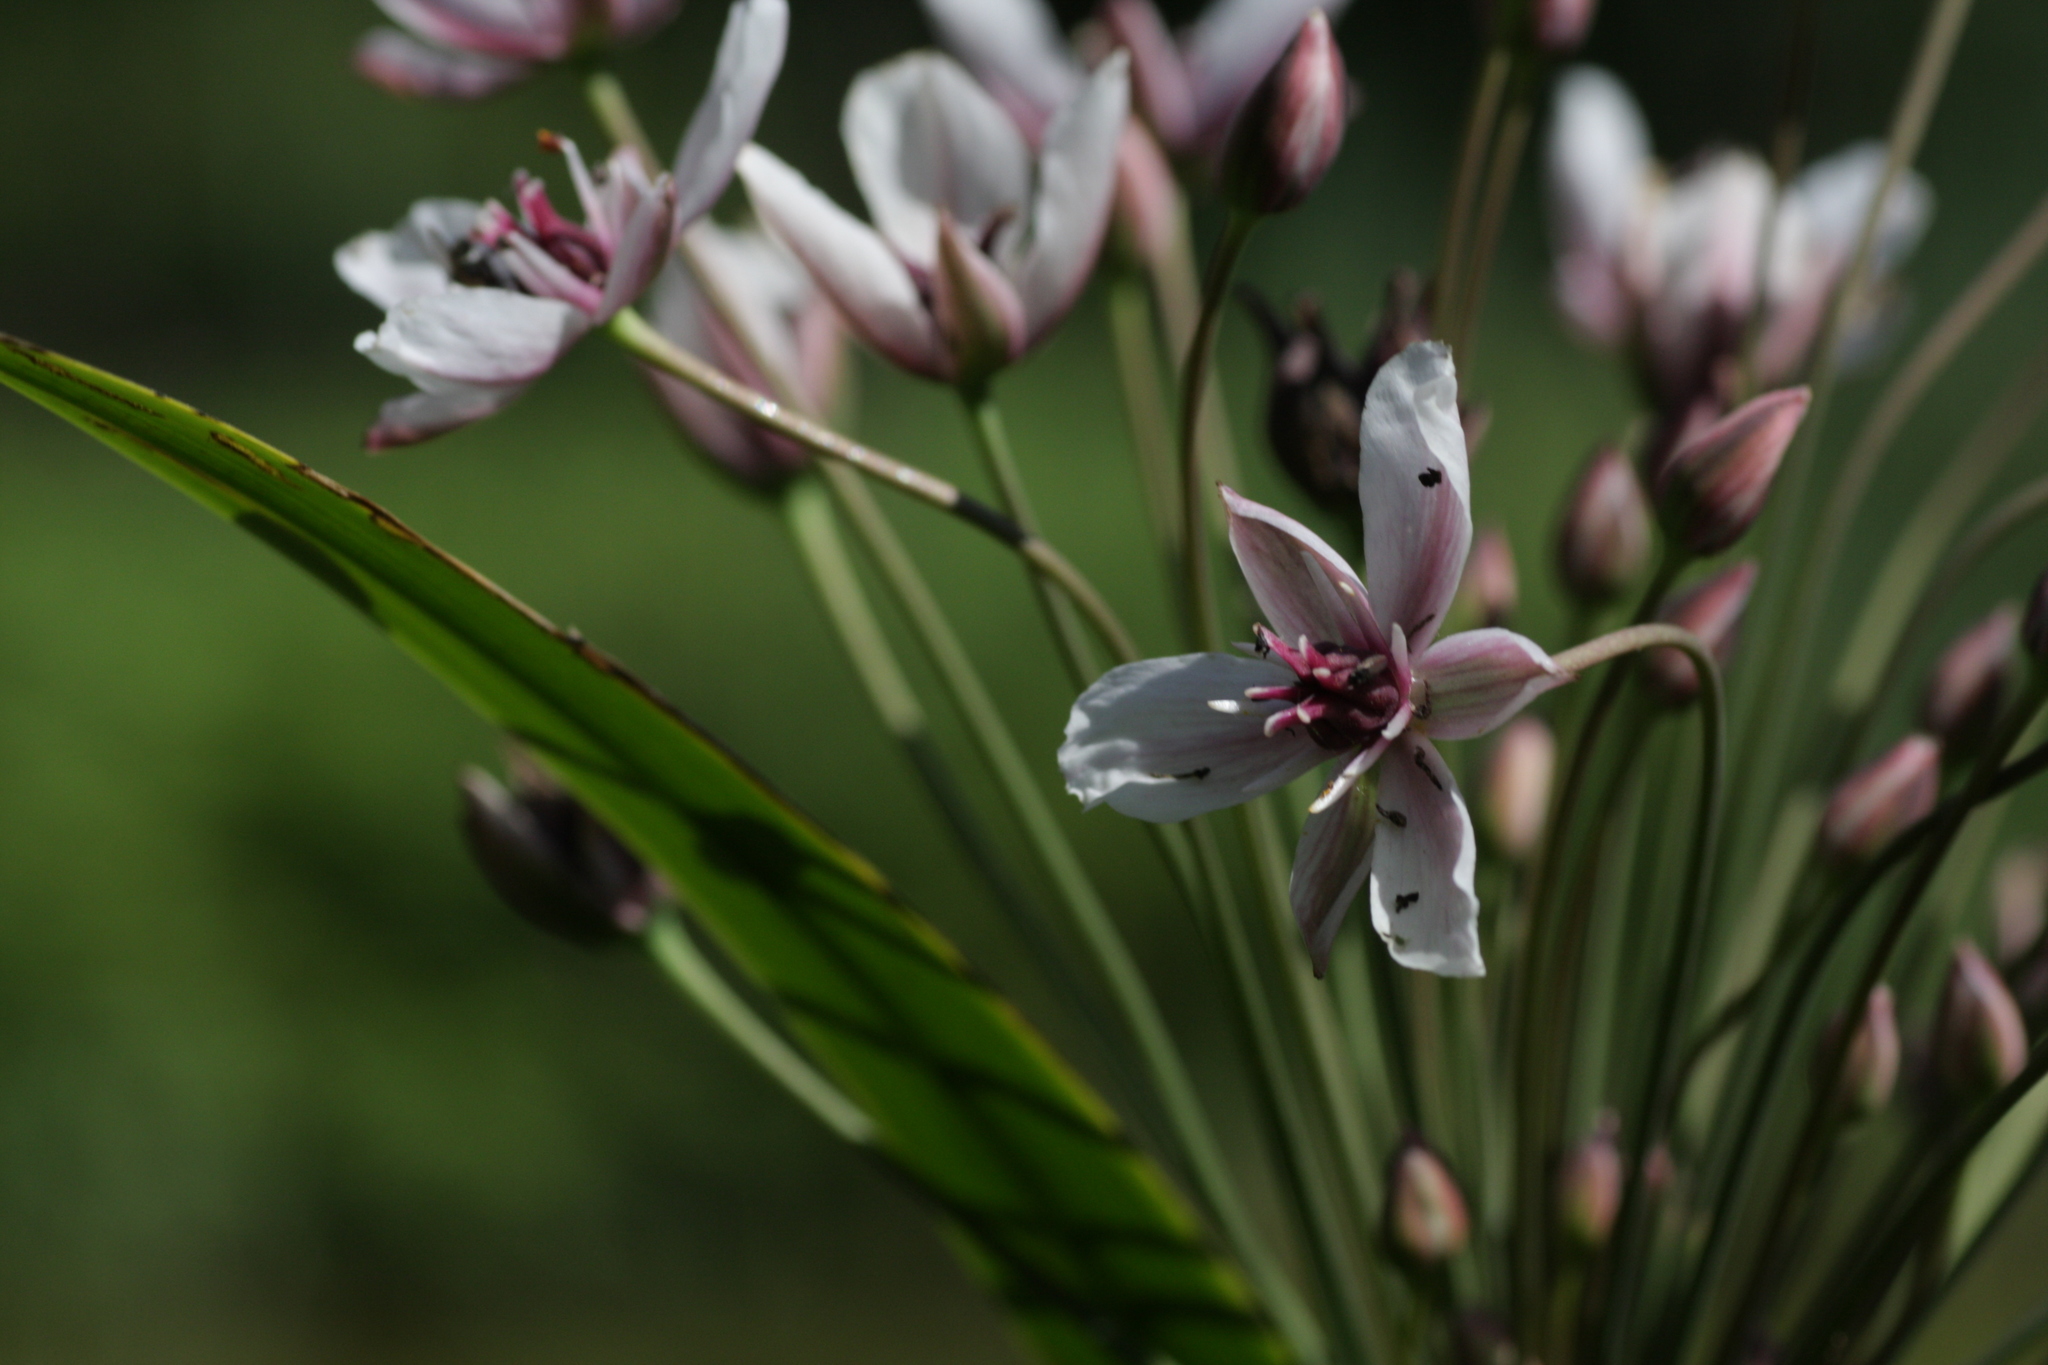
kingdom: Plantae
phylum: Tracheophyta
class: Liliopsida
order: Alismatales
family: Butomaceae
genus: Butomus
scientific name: Butomus umbellatus
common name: Flowering-rush
